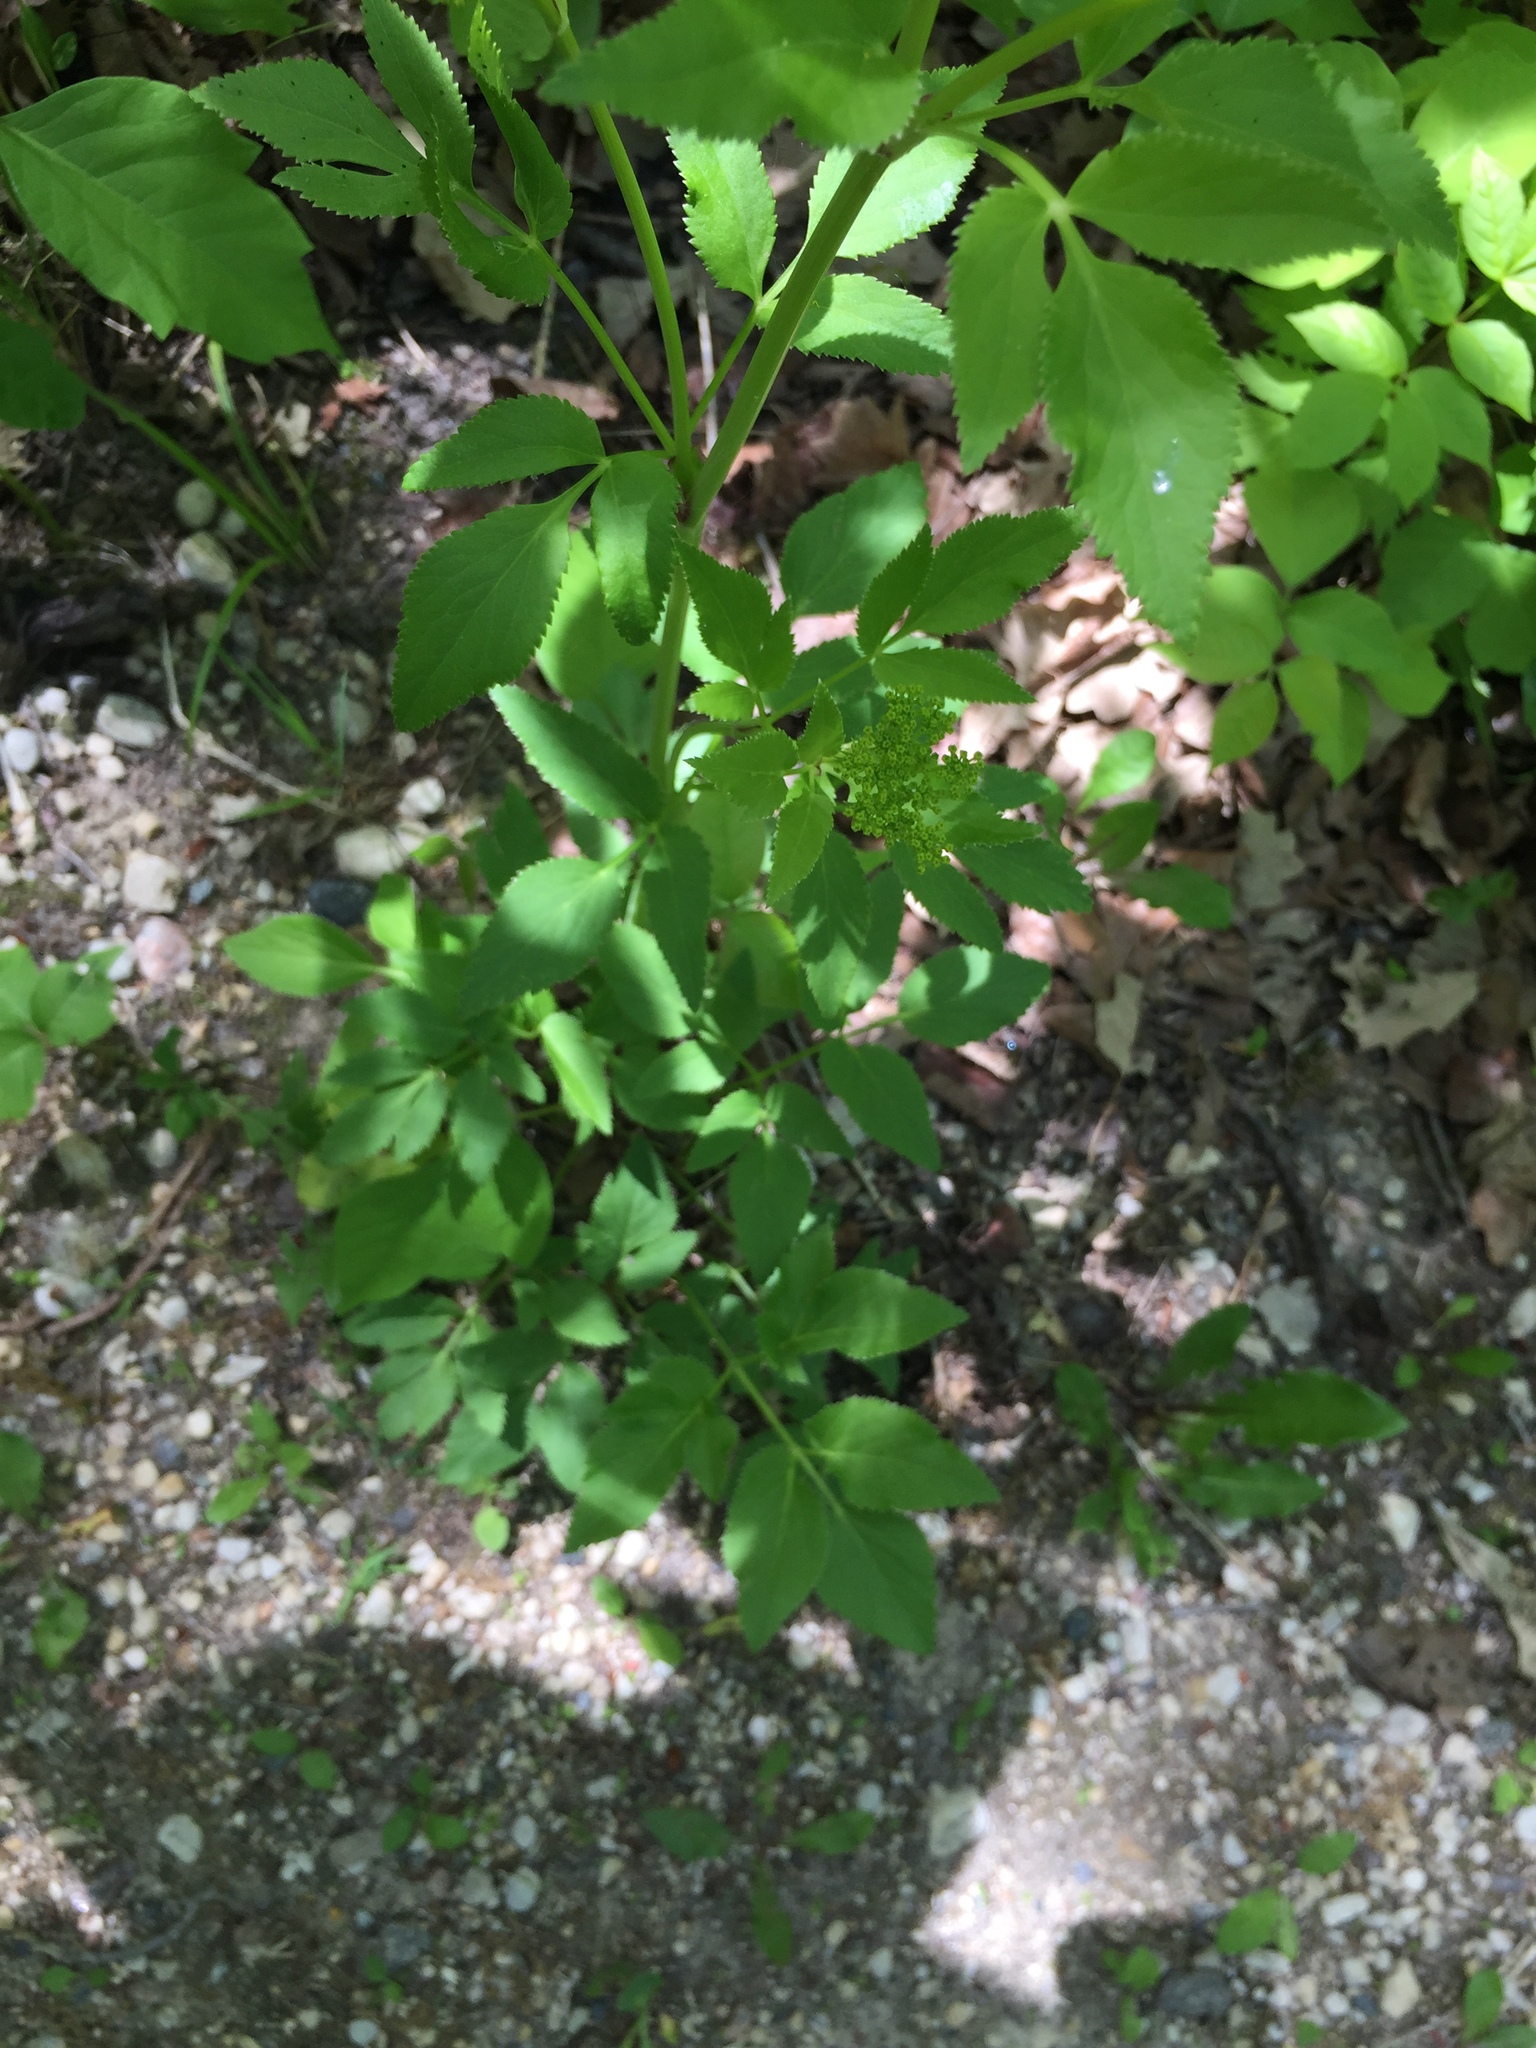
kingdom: Plantae
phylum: Tracheophyta
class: Magnoliopsida
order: Apiales
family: Apiaceae
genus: Zizia
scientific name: Zizia aurea
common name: Golden alexanders
